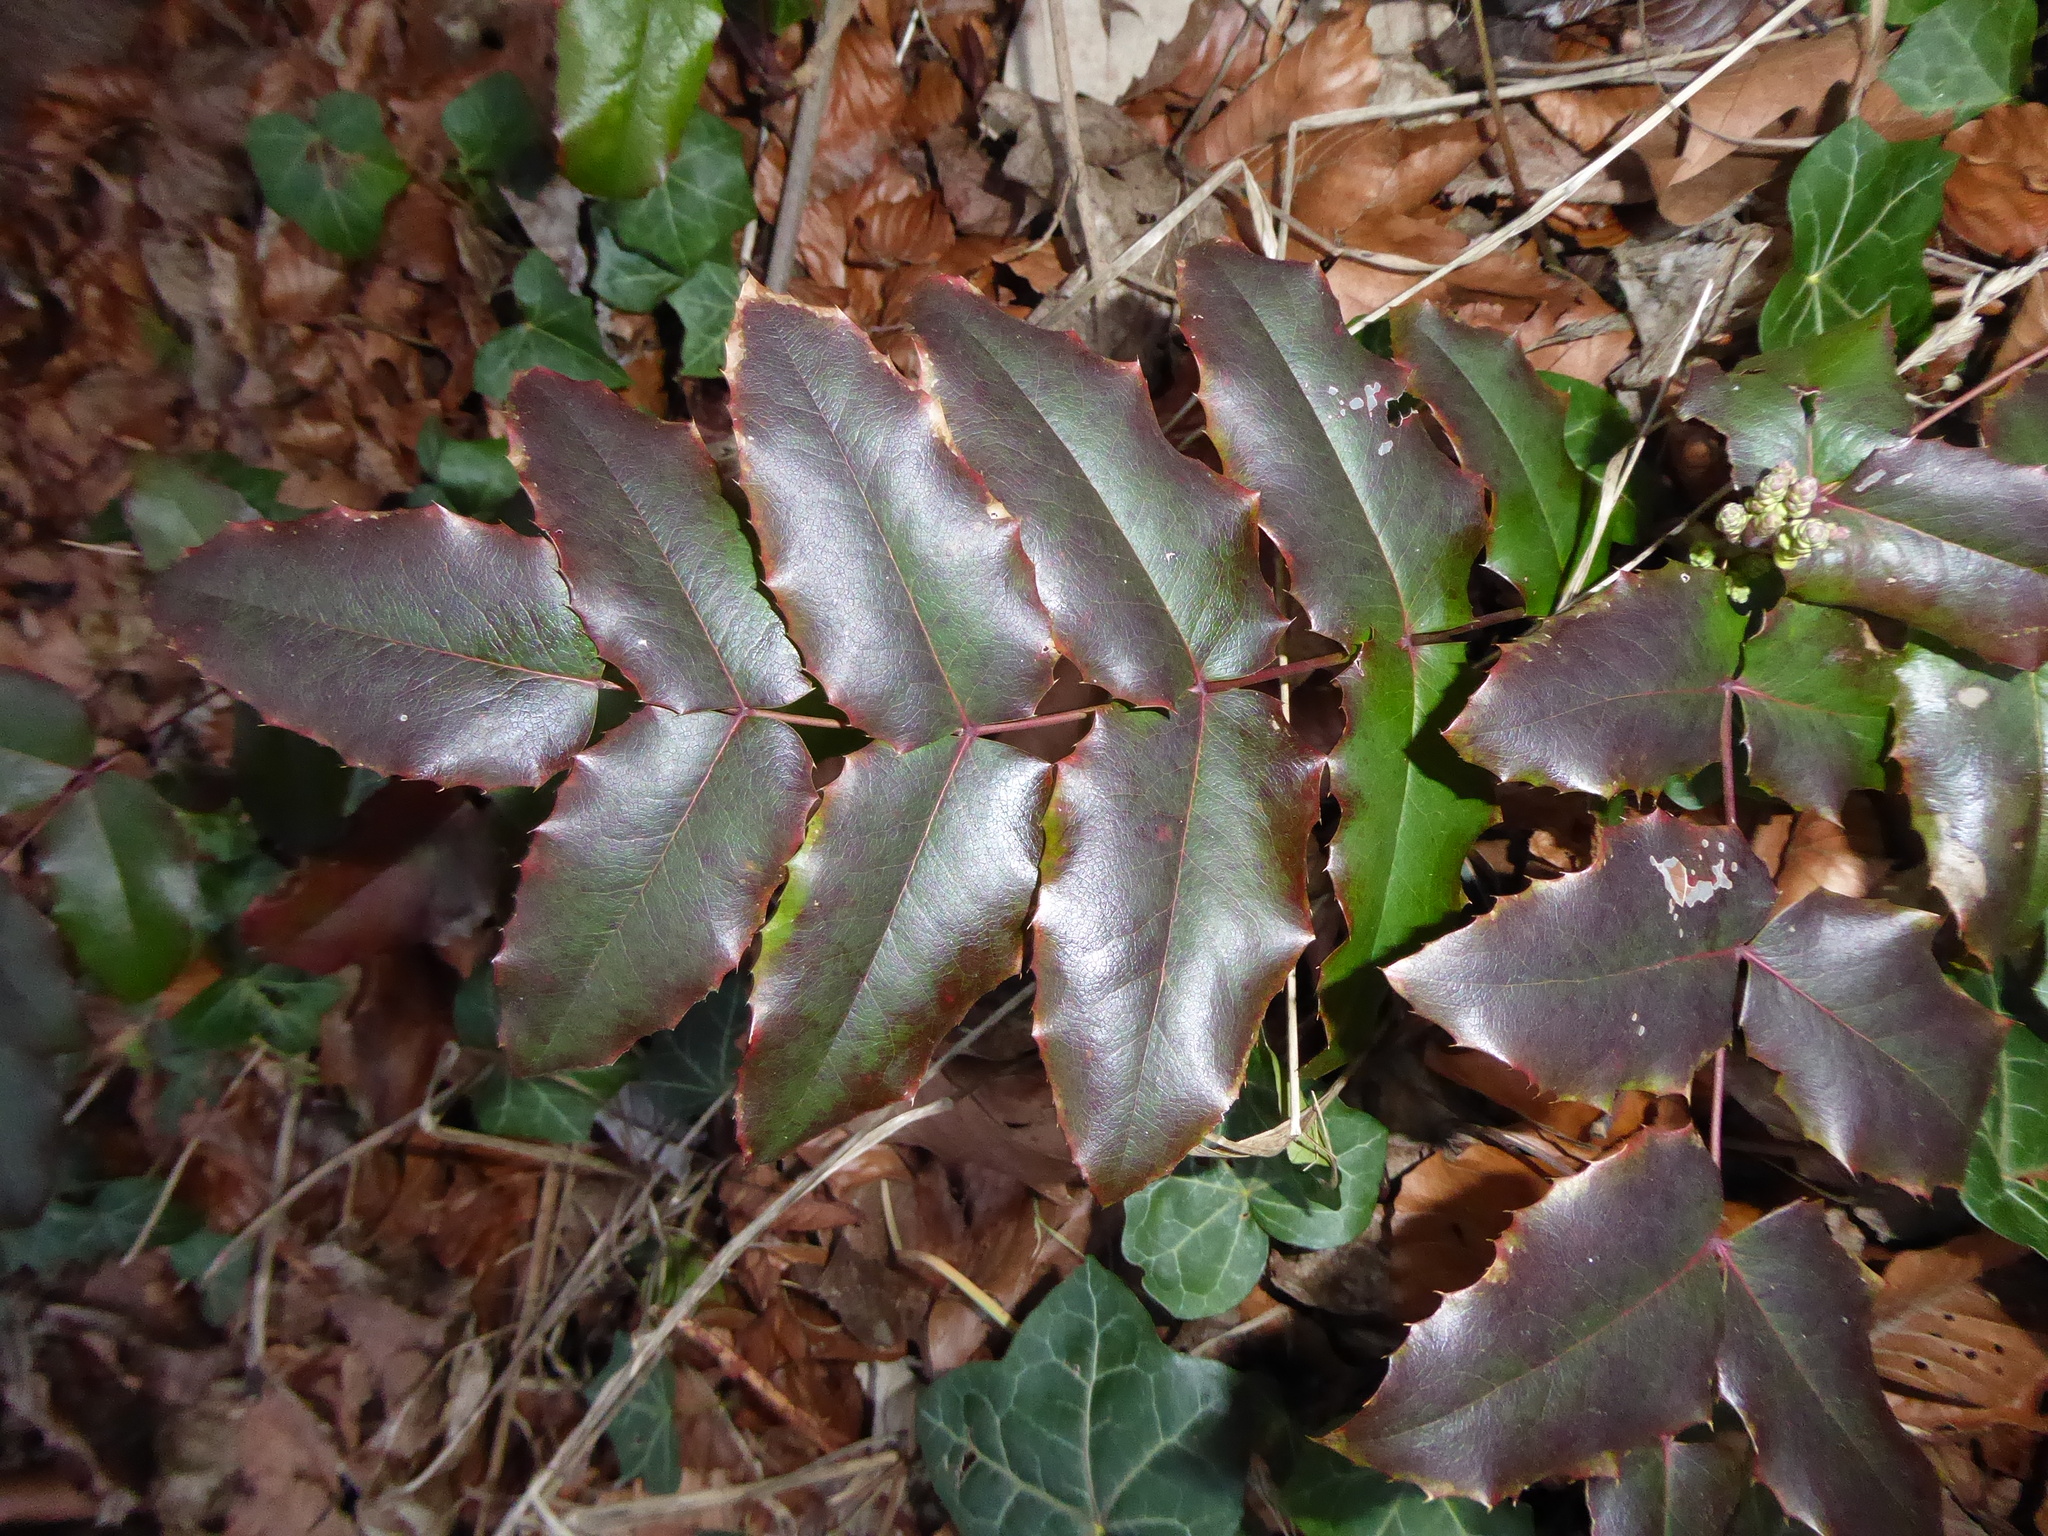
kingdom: Plantae
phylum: Tracheophyta
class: Magnoliopsida
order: Ranunculales
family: Berberidaceae
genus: Mahonia
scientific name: Mahonia aquifolium
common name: Oregon-grape
